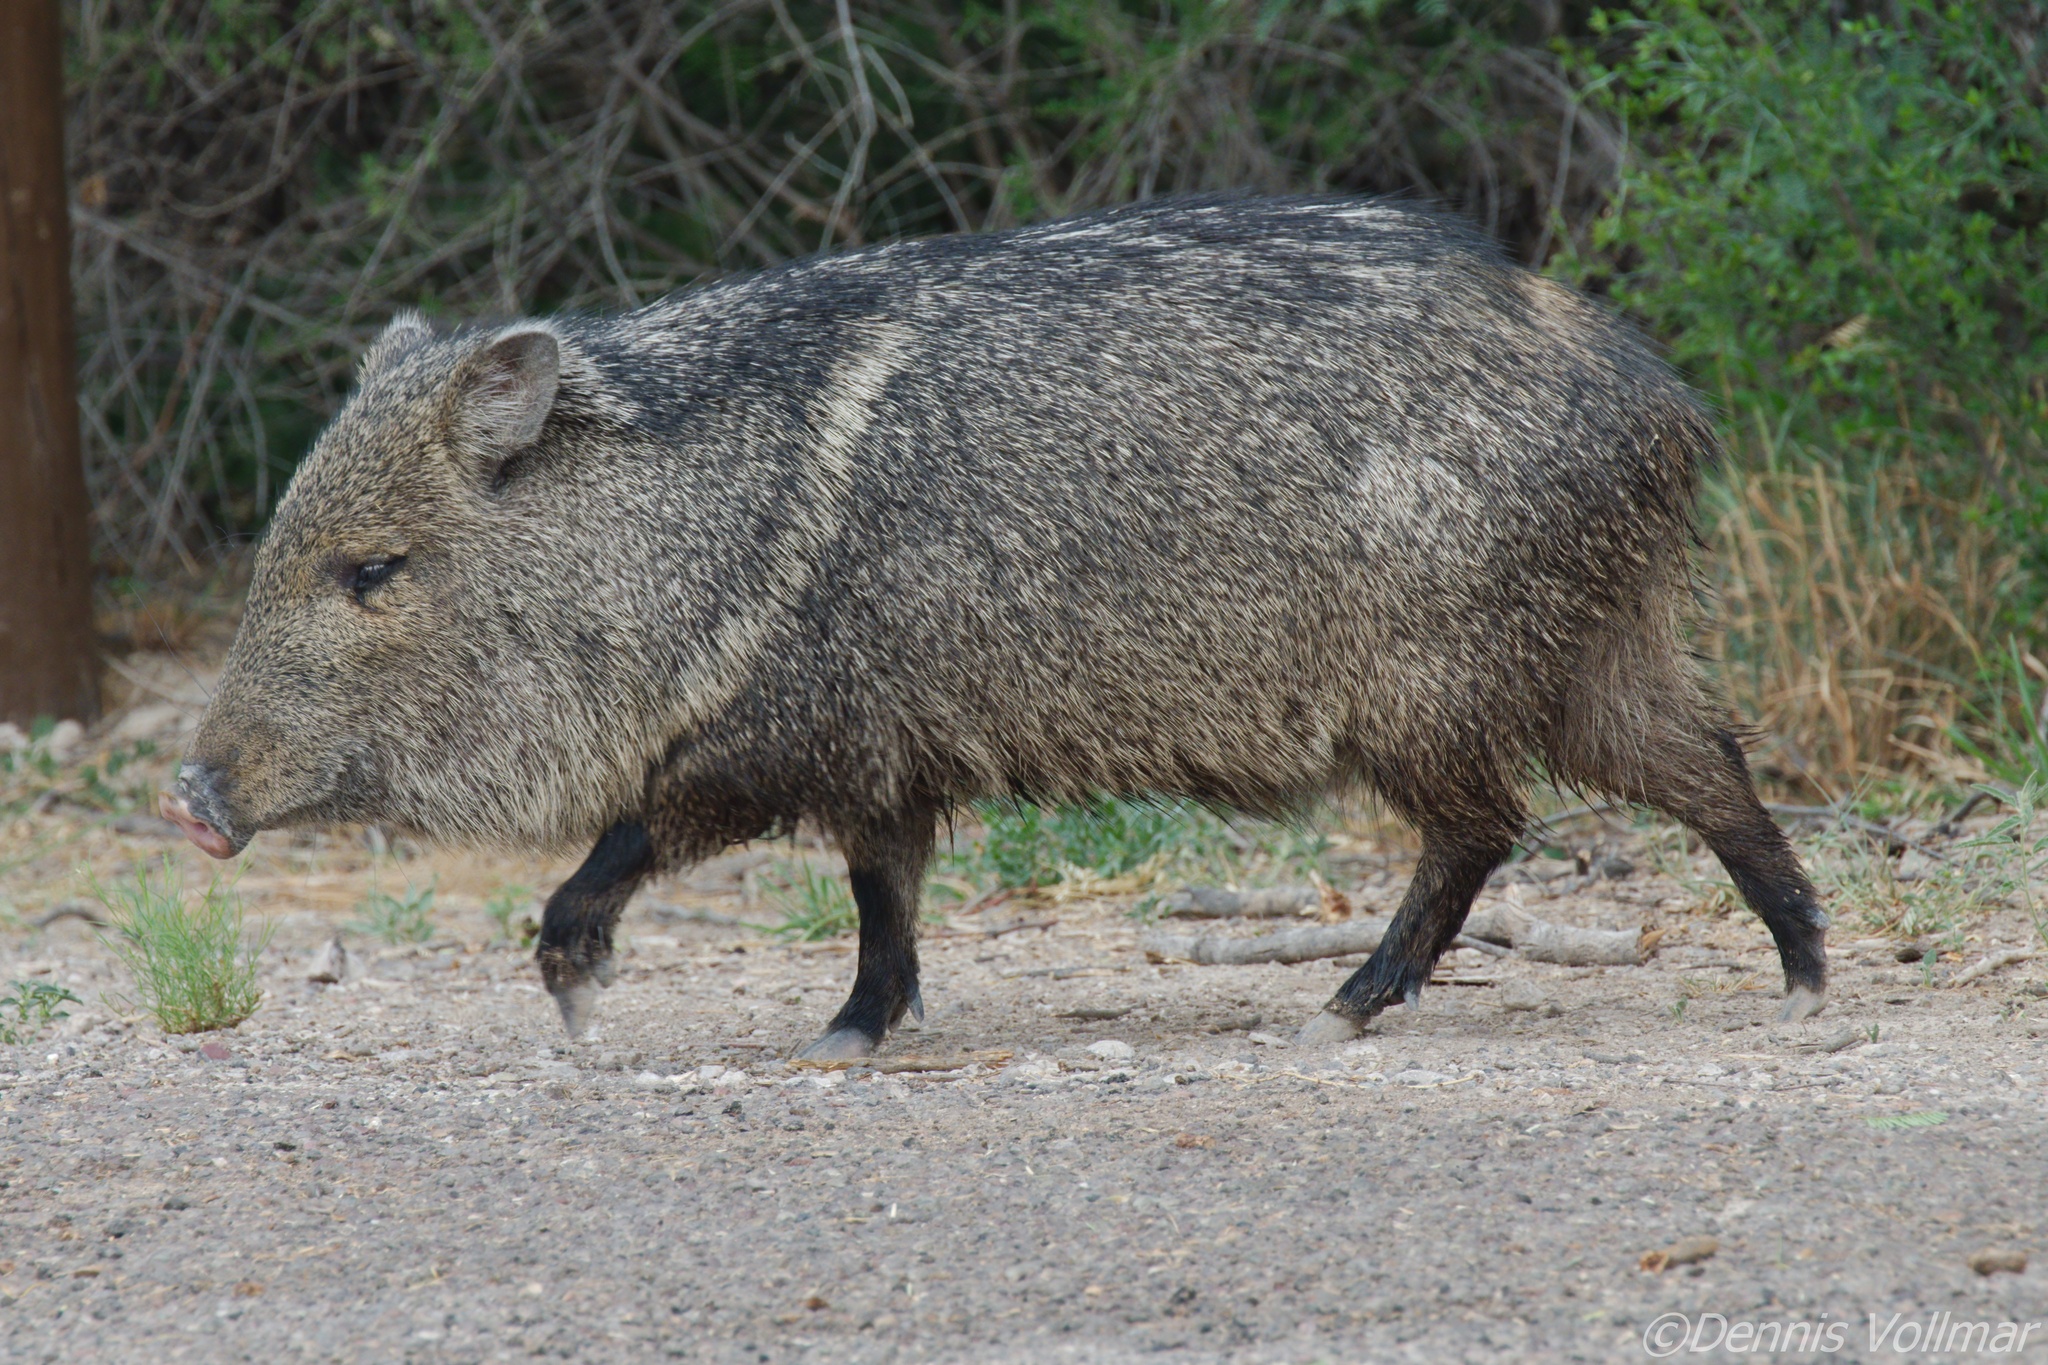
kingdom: Animalia
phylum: Chordata
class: Mammalia
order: Artiodactyla
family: Tayassuidae
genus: Pecari
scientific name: Pecari tajacu
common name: Collared peccary
